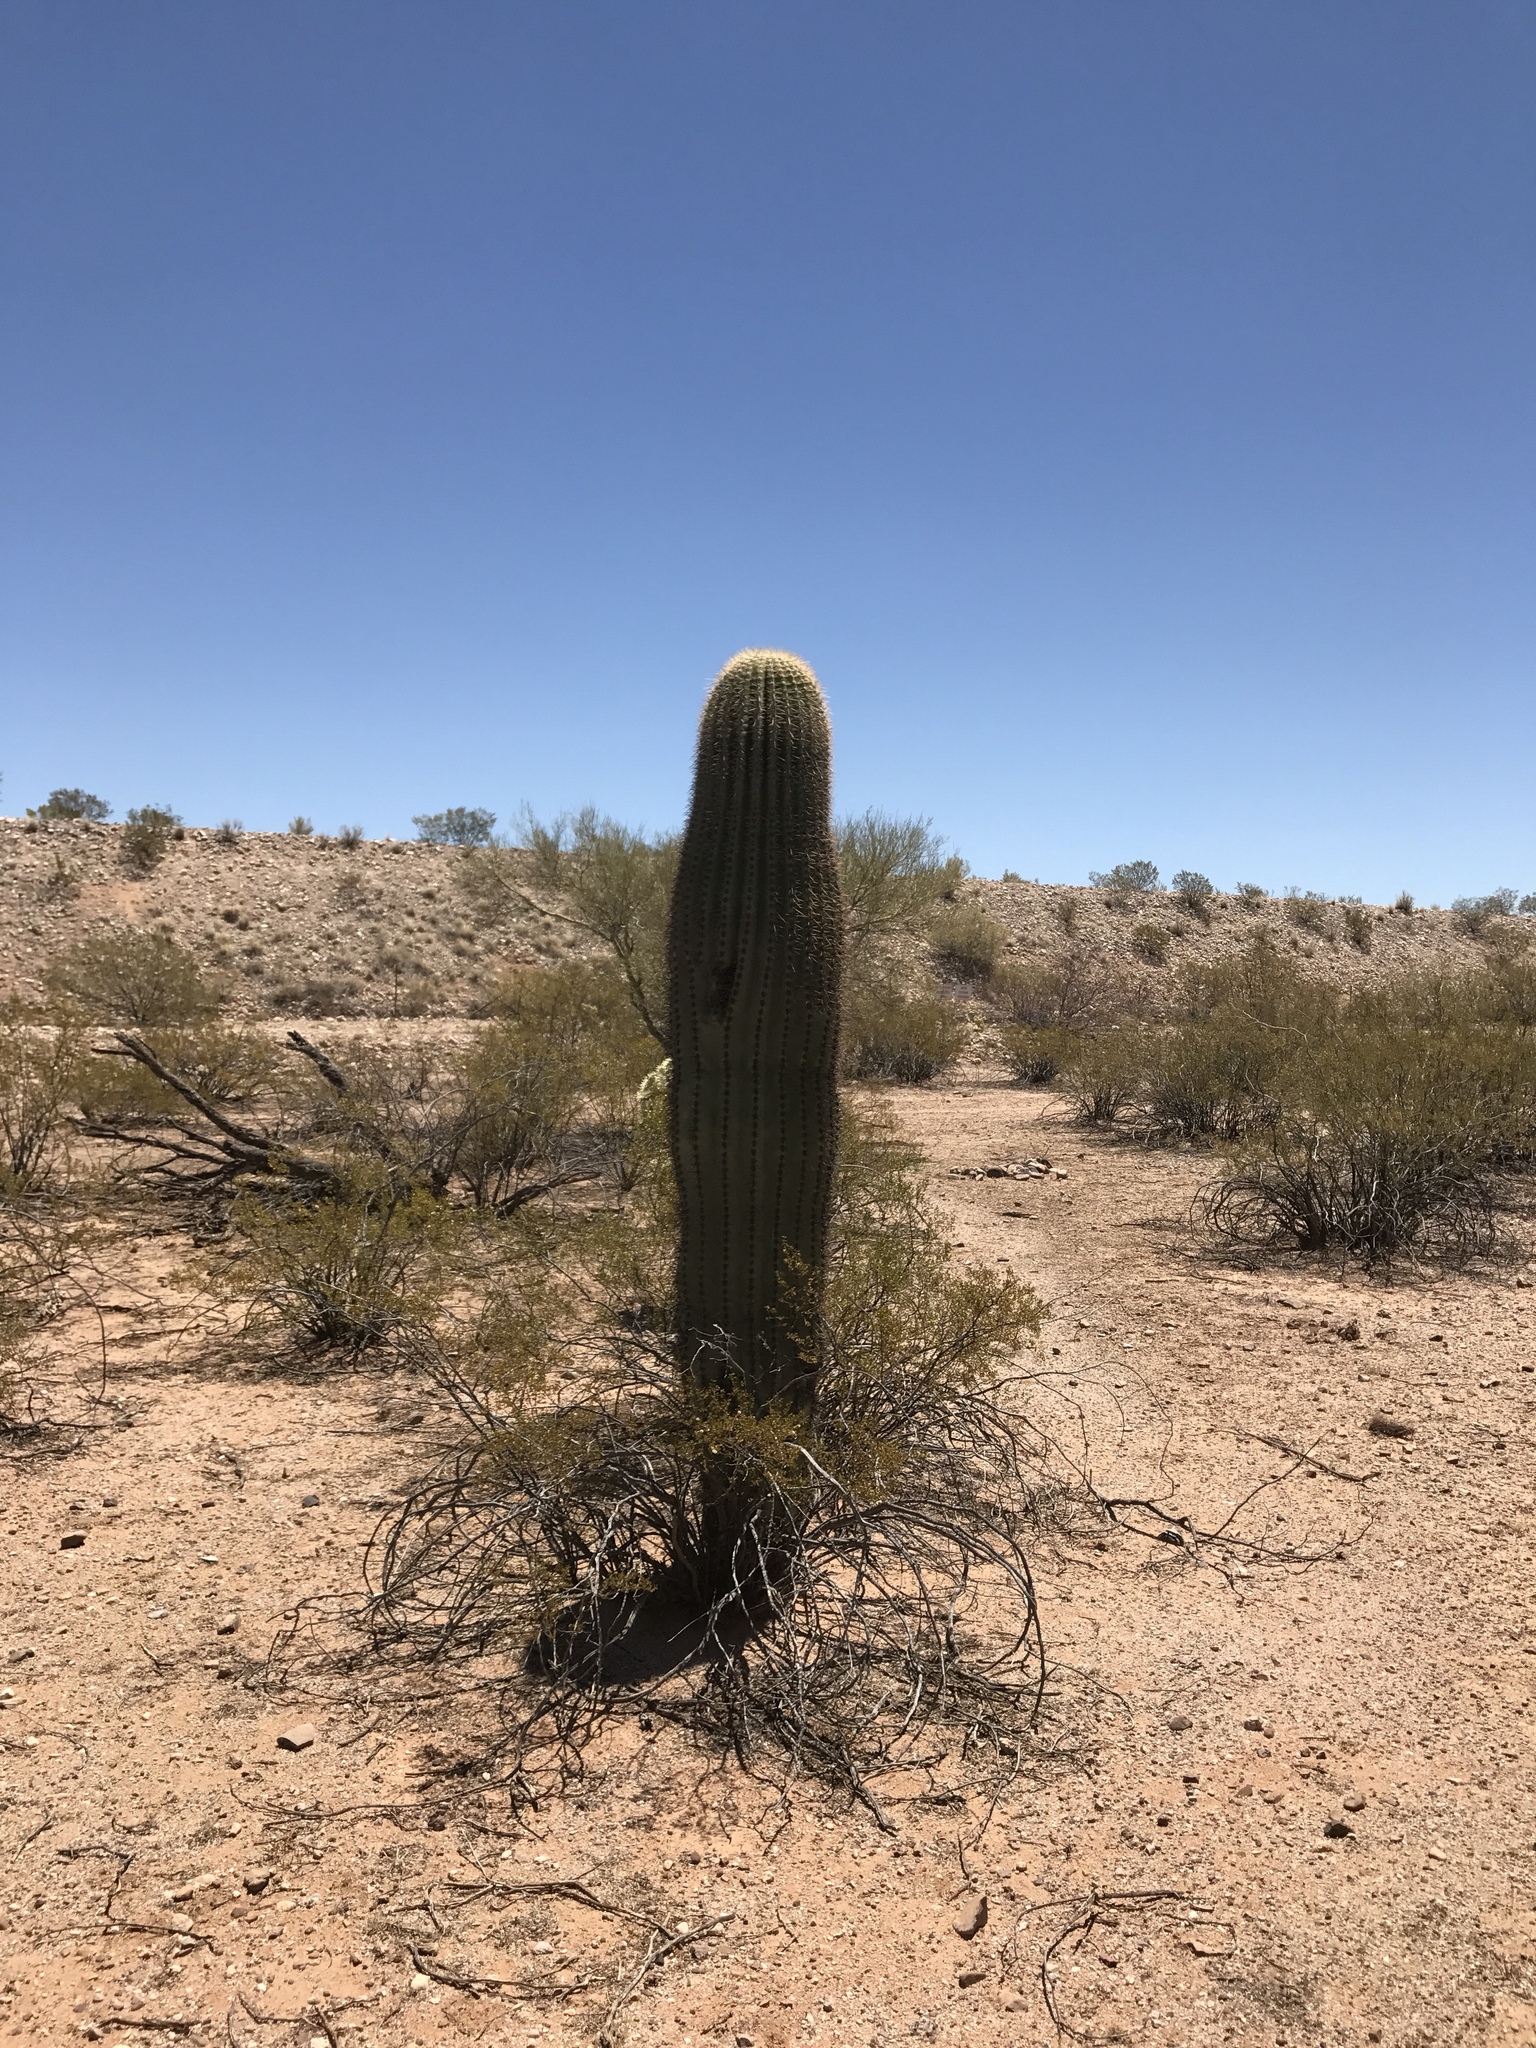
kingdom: Plantae
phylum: Tracheophyta
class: Magnoliopsida
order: Caryophyllales
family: Cactaceae
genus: Carnegiea
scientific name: Carnegiea gigantea
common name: Saguaro
